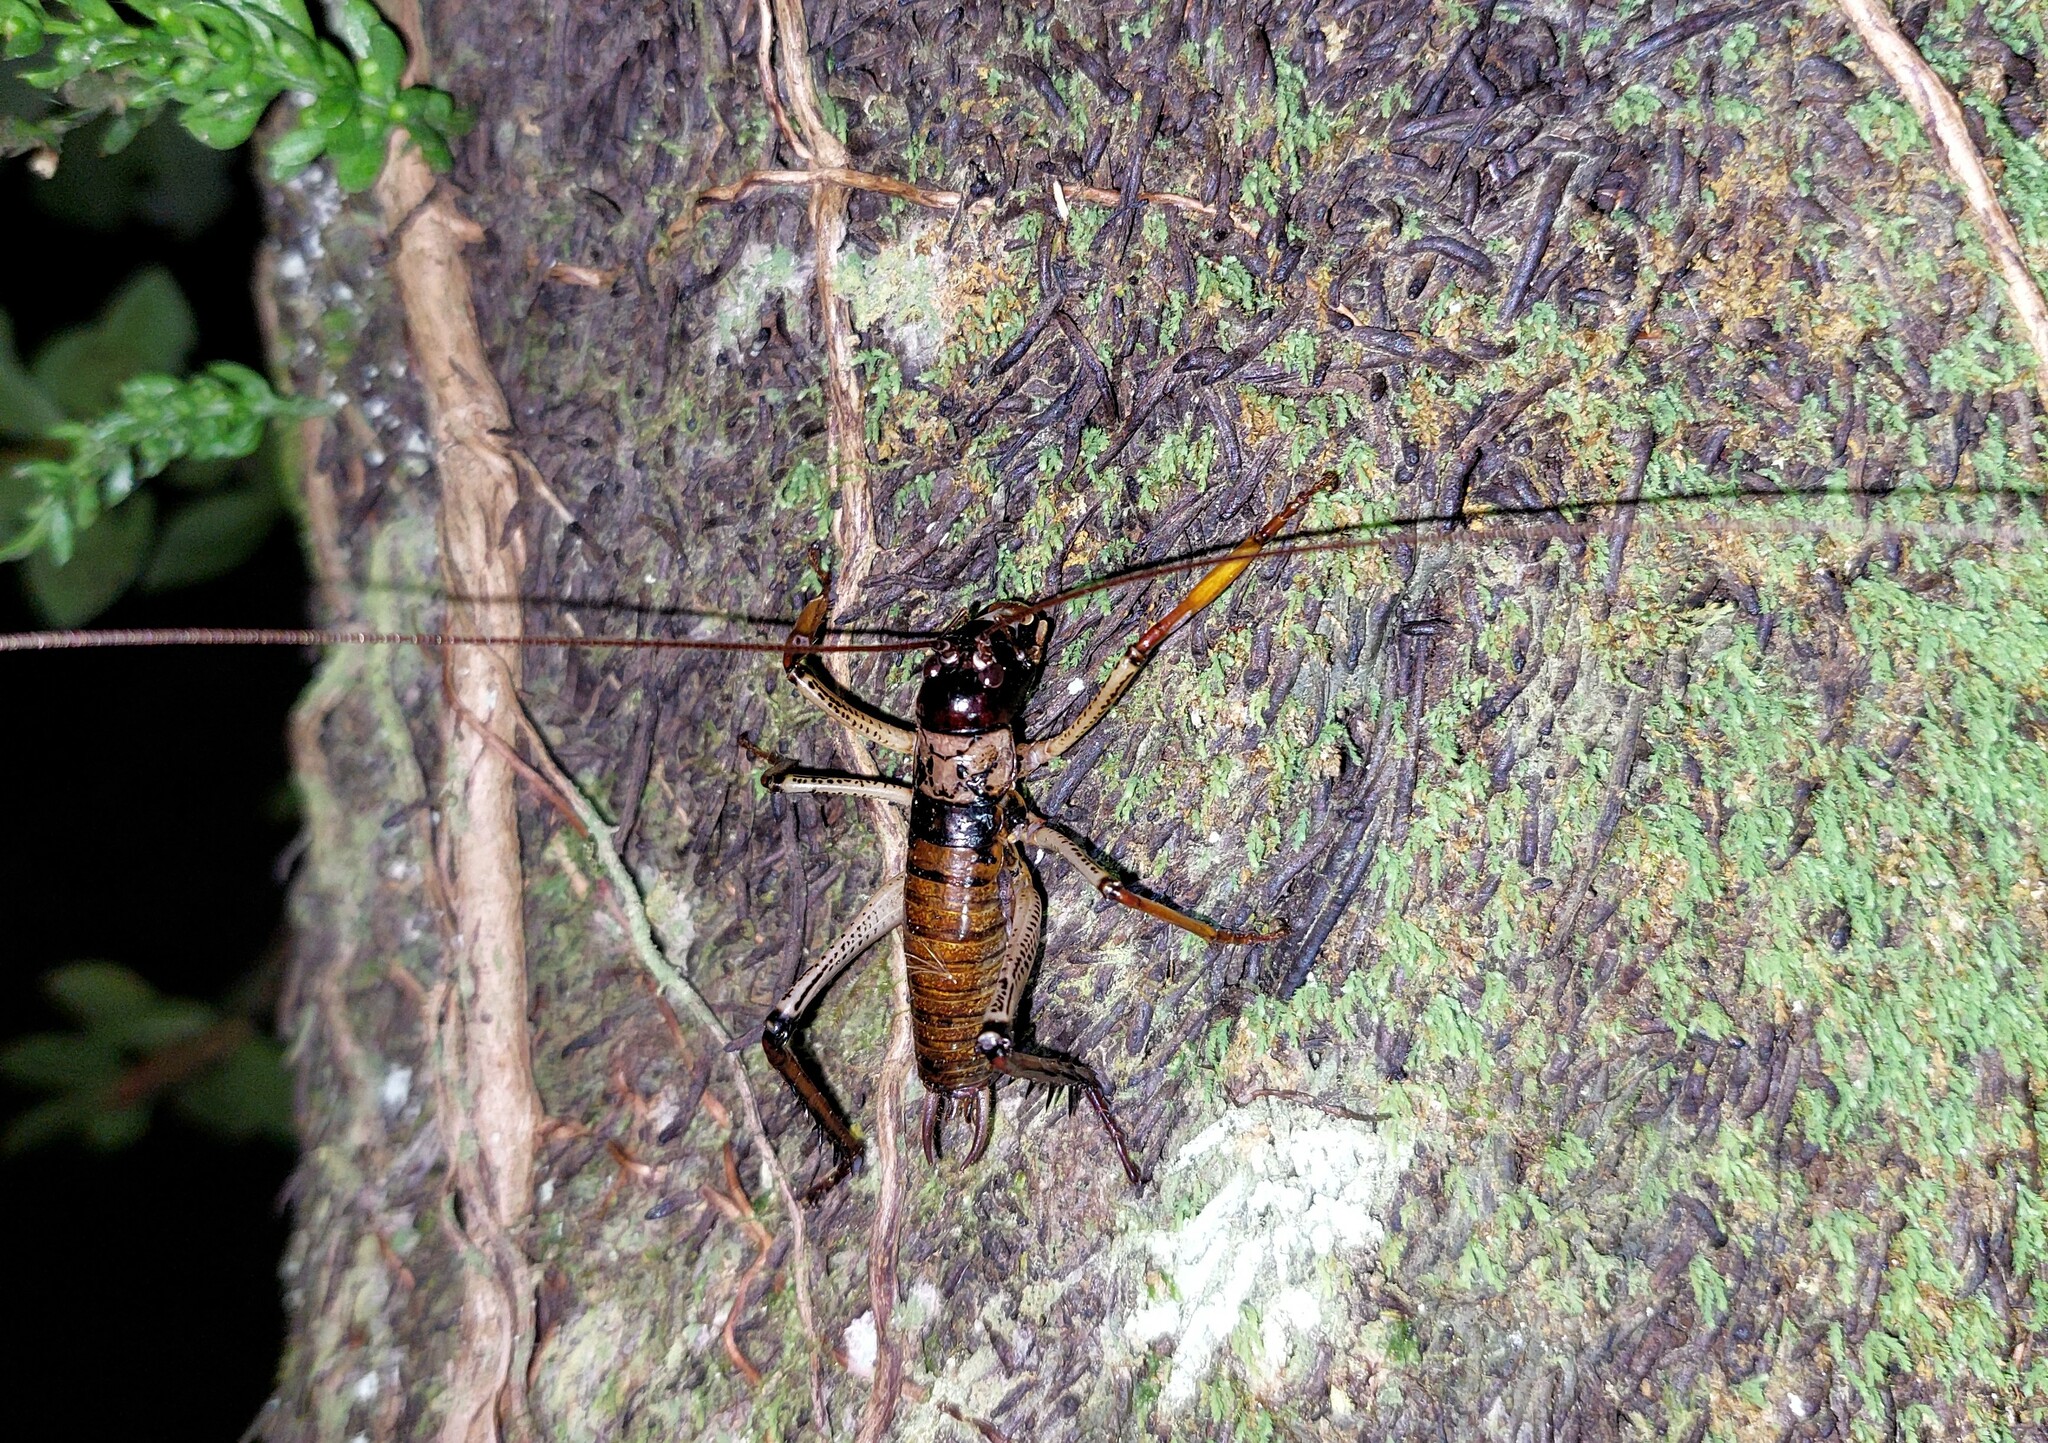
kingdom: Animalia
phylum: Arthropoda
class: Insecta
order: Orthoptera
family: Anostostomatidae
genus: Hemideina
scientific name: Hemideina thoracica
